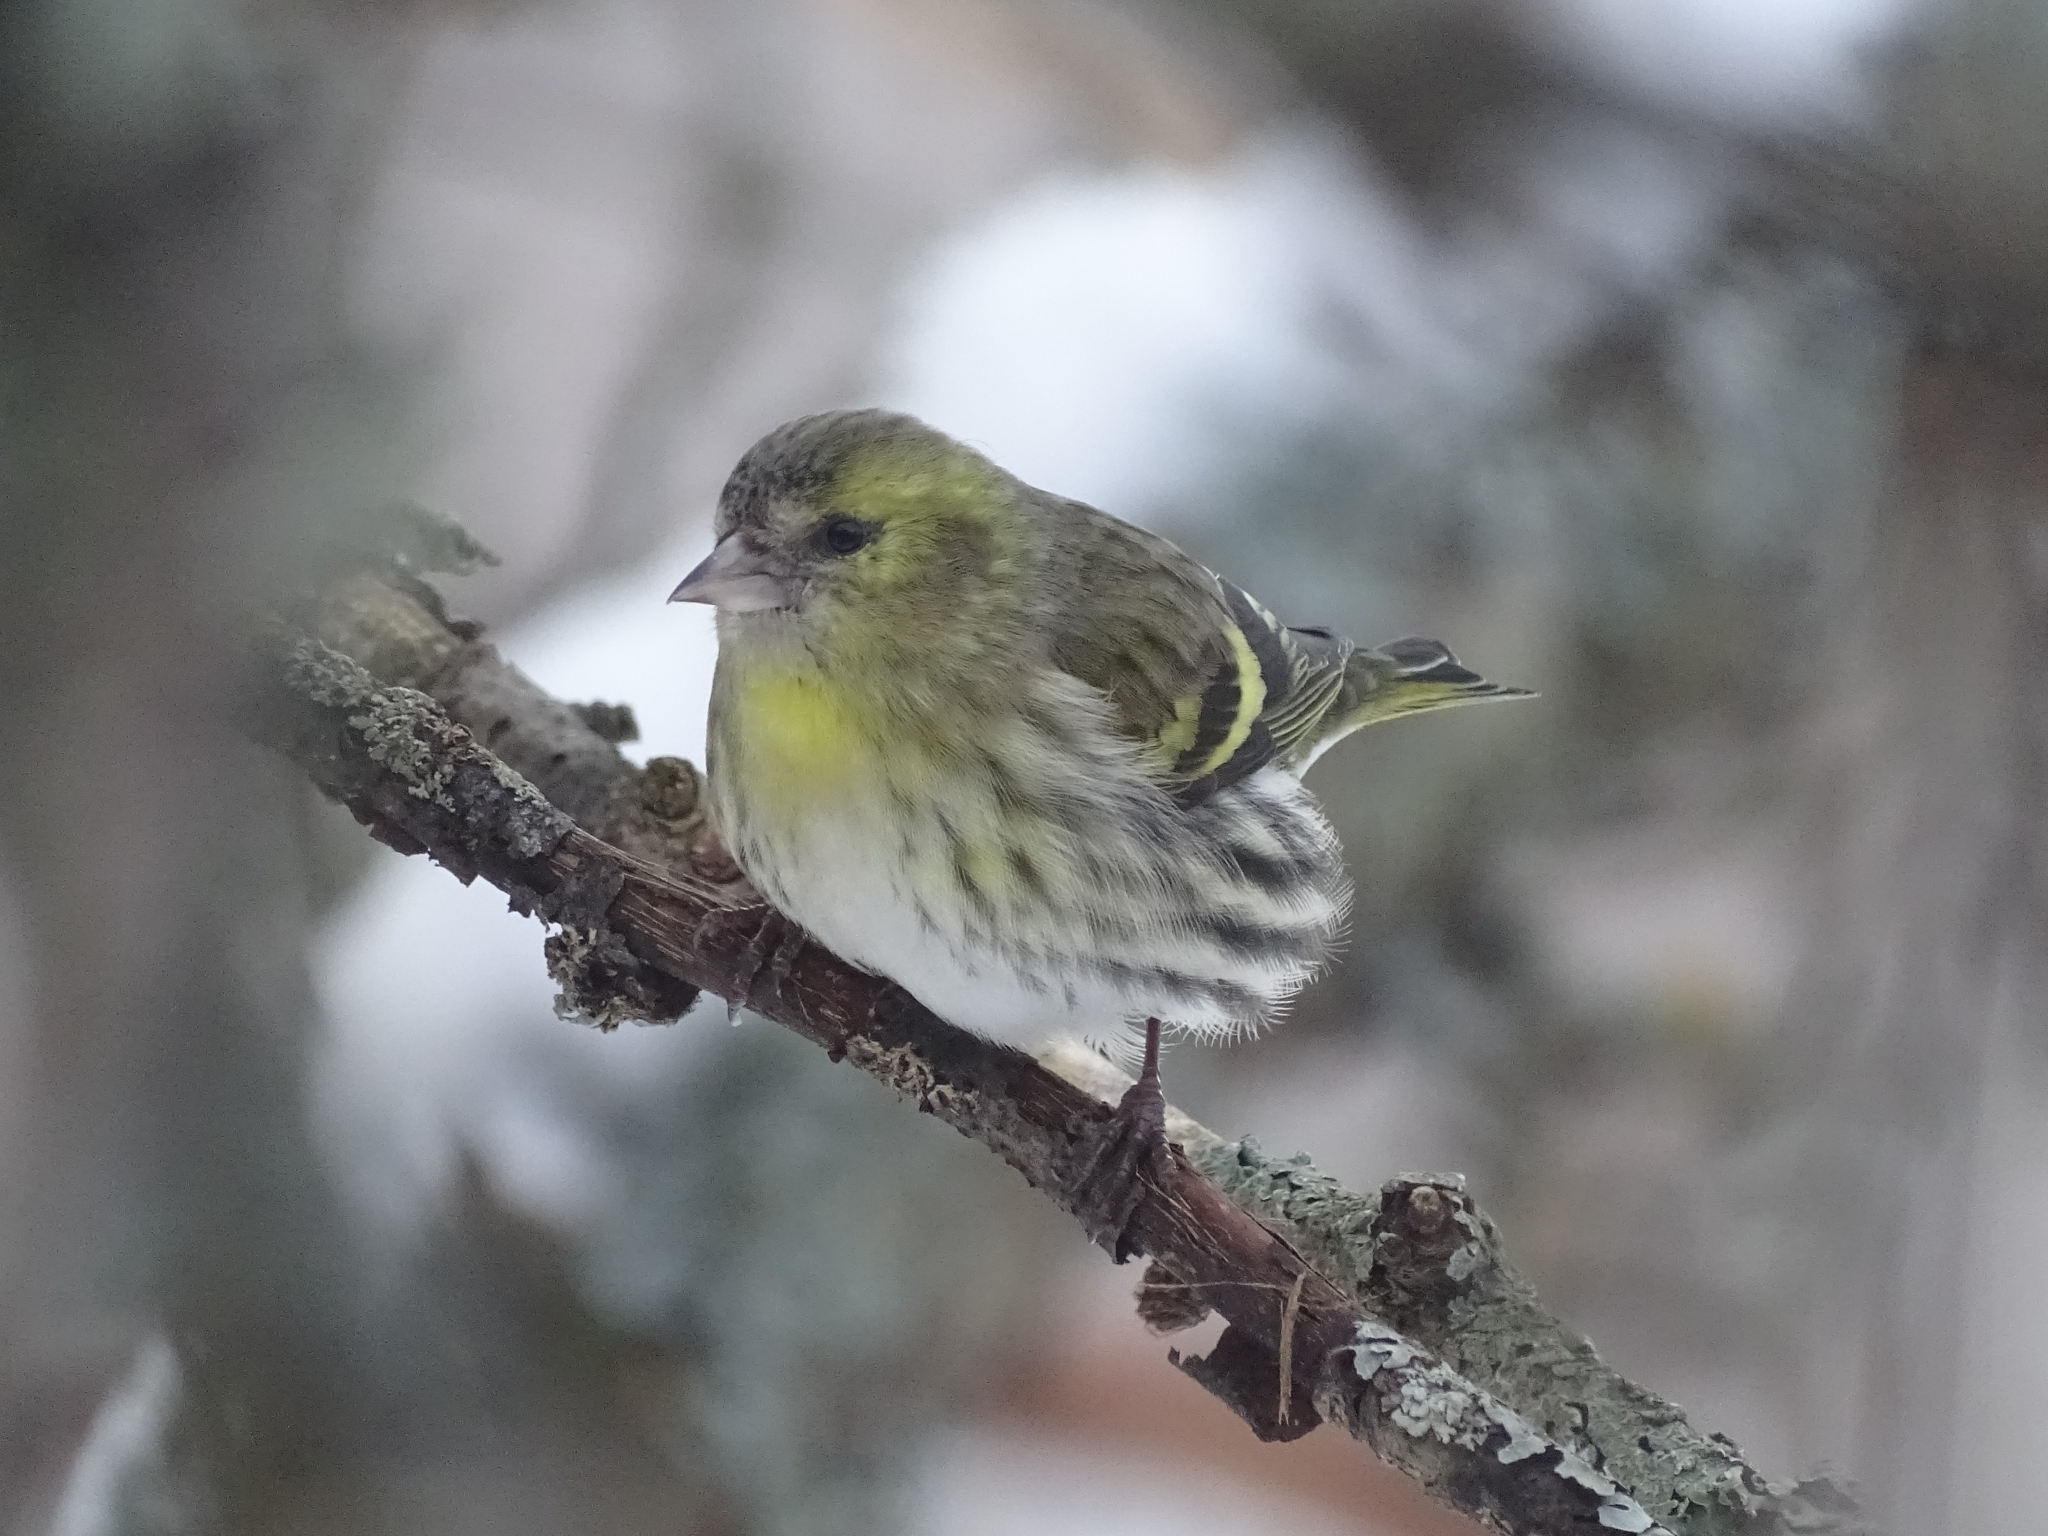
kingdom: Animalia
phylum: Chordata
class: Aves
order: Passeriformes
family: Fringillidae
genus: Spinus
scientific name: Spinus spinus
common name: Eurasian siskin
